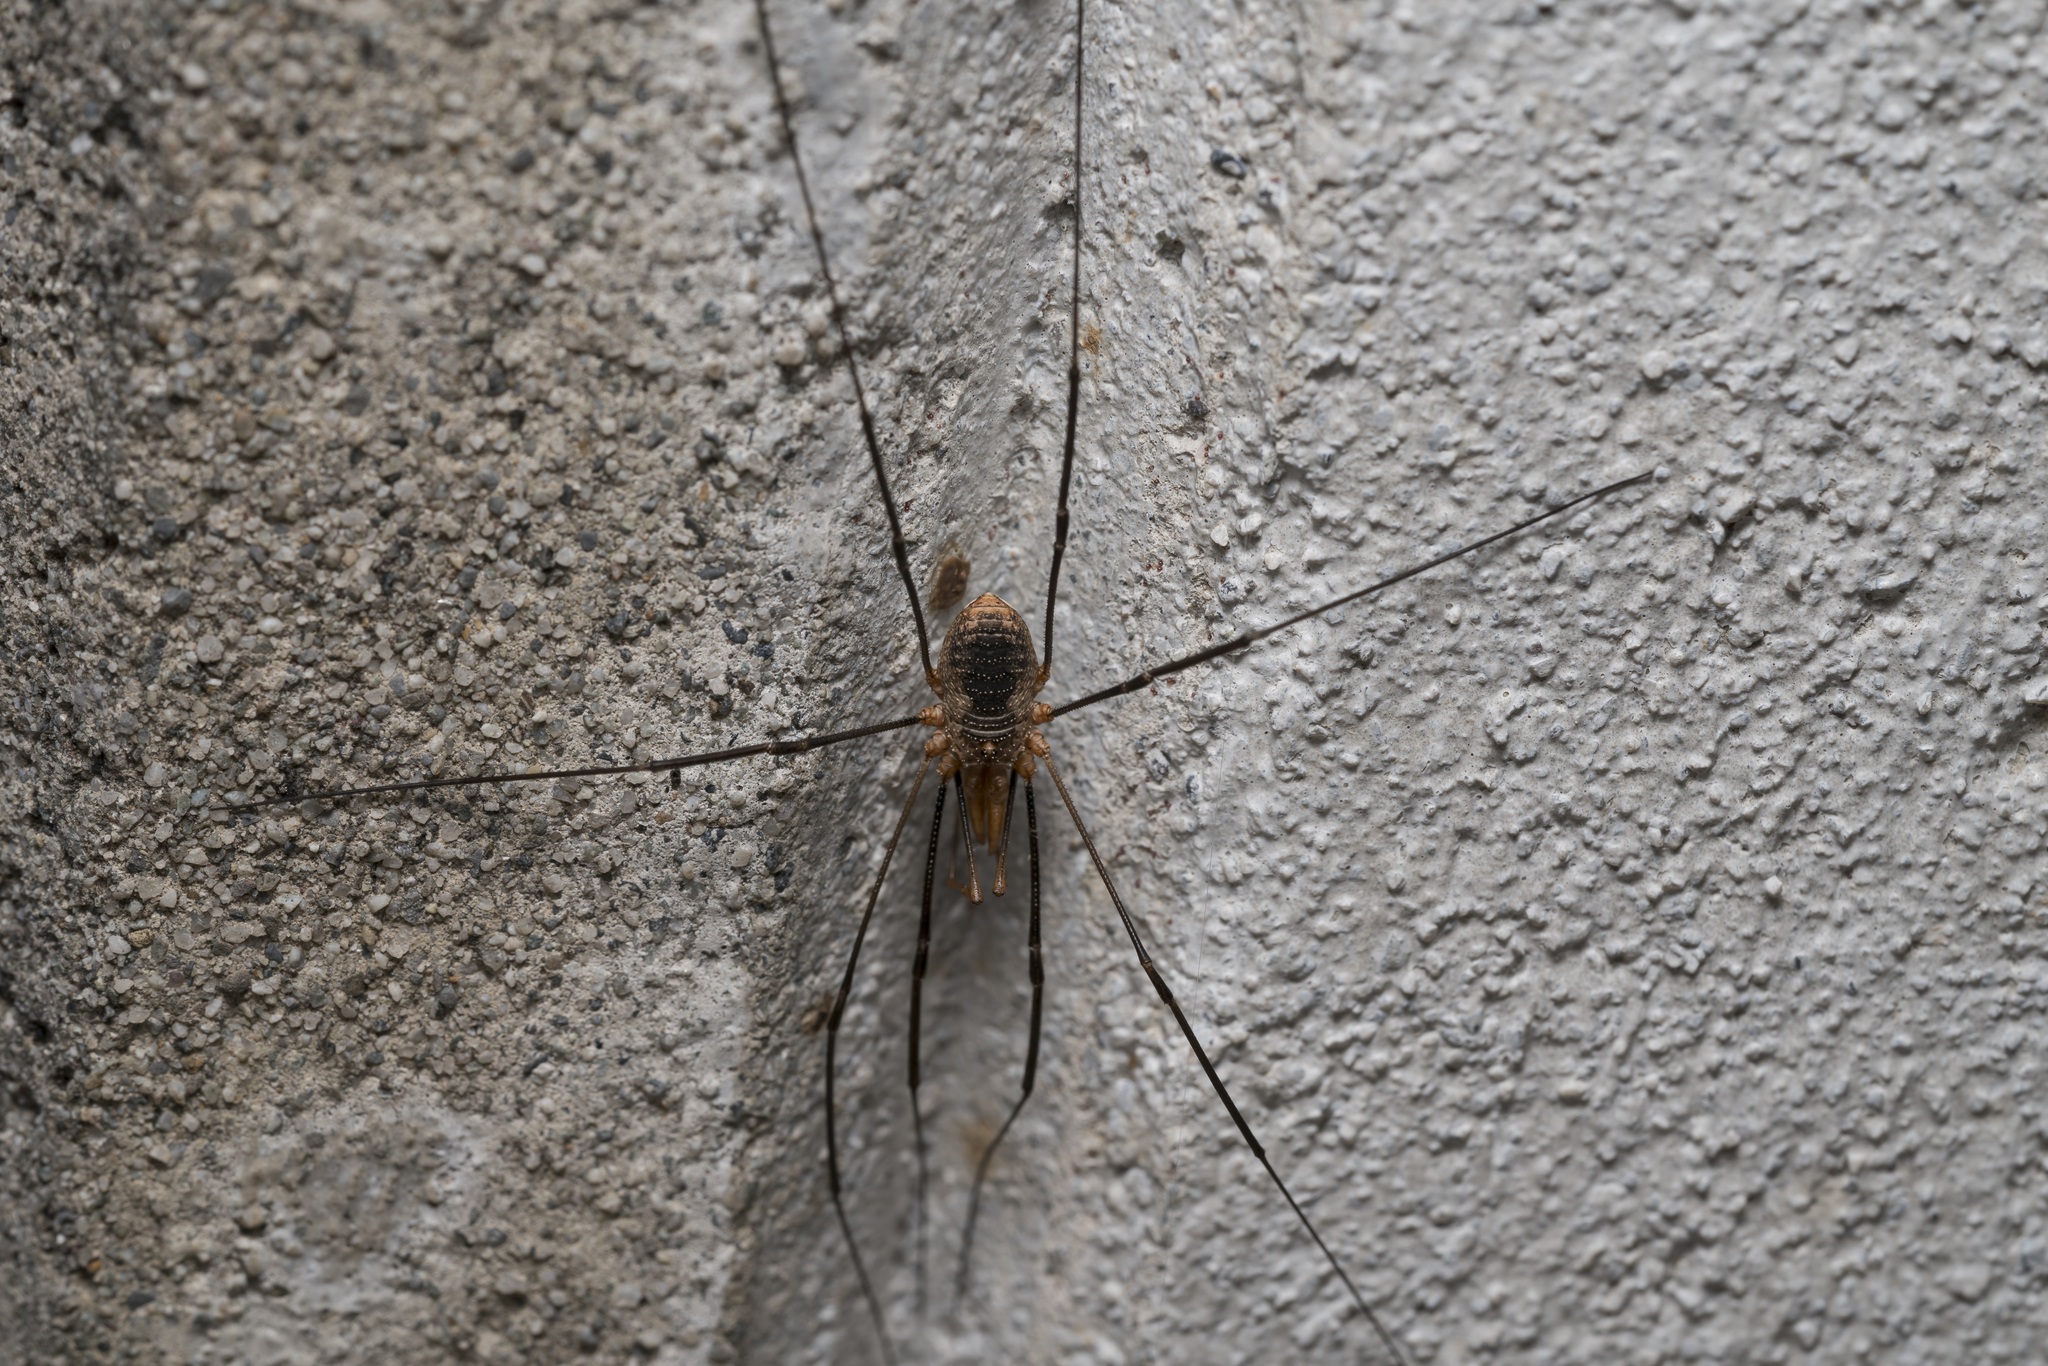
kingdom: Animalia
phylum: Arthropoda
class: Arachnida
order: Opiliones
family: Phalangiidae
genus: Phalangium
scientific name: Phalangium opilio
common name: Daddy longleg
